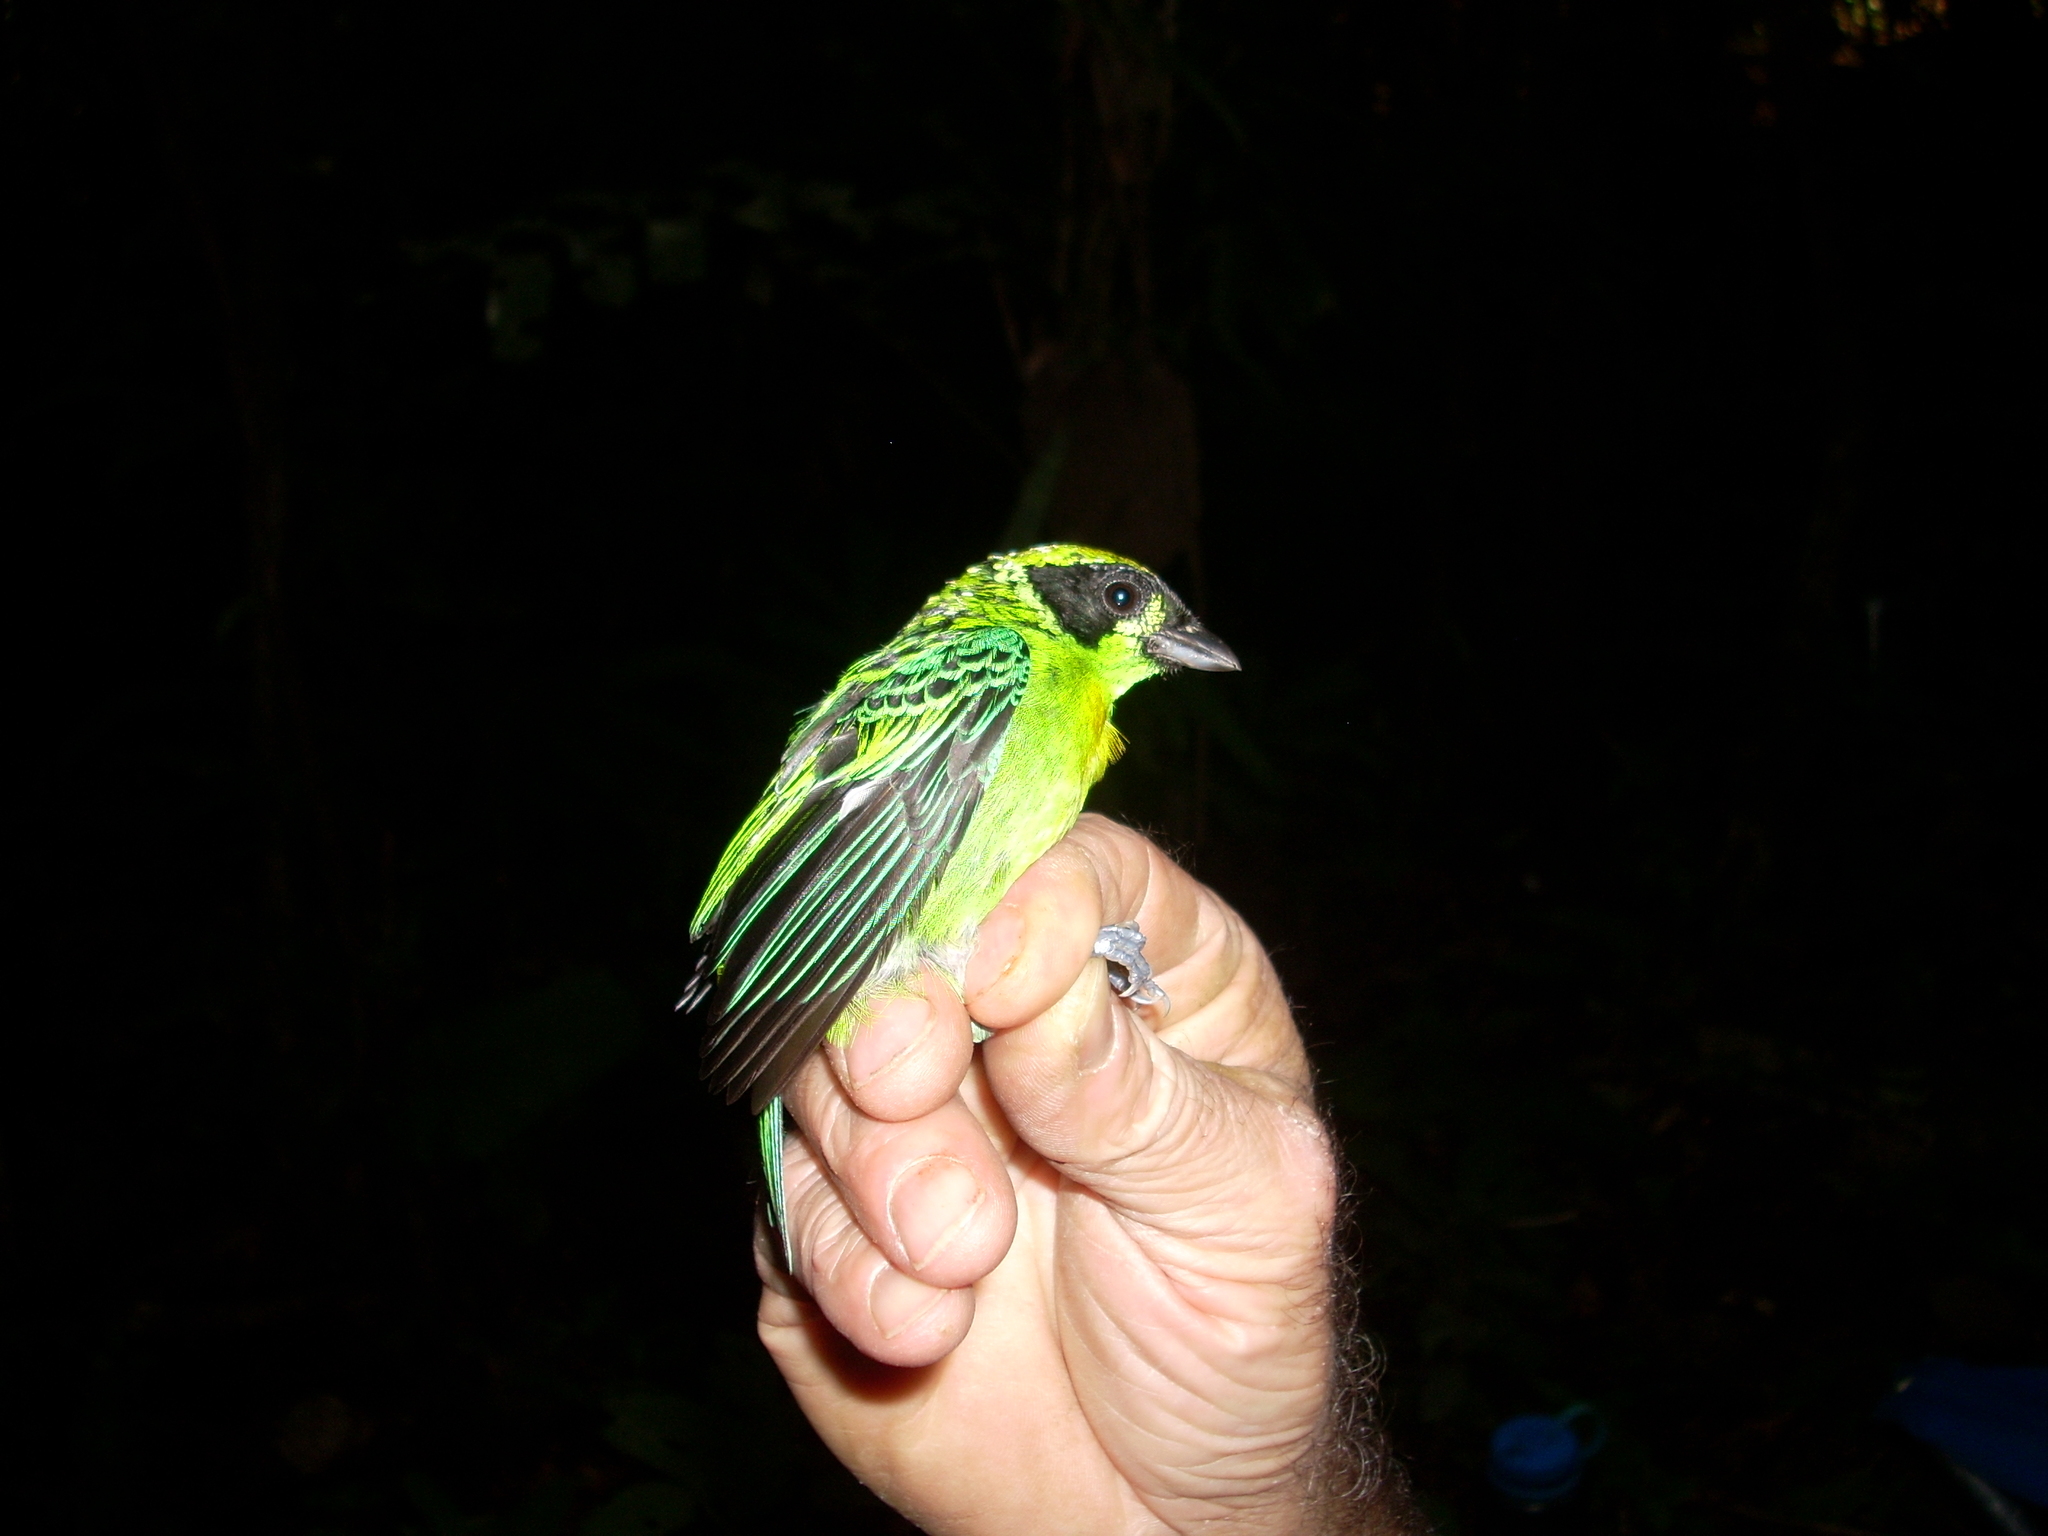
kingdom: Animalia
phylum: Chordata
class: Aves
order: Passeriformes
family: Thraupidae
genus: Tangara
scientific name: Tangara schrankii
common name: Green-and-gold tanager
